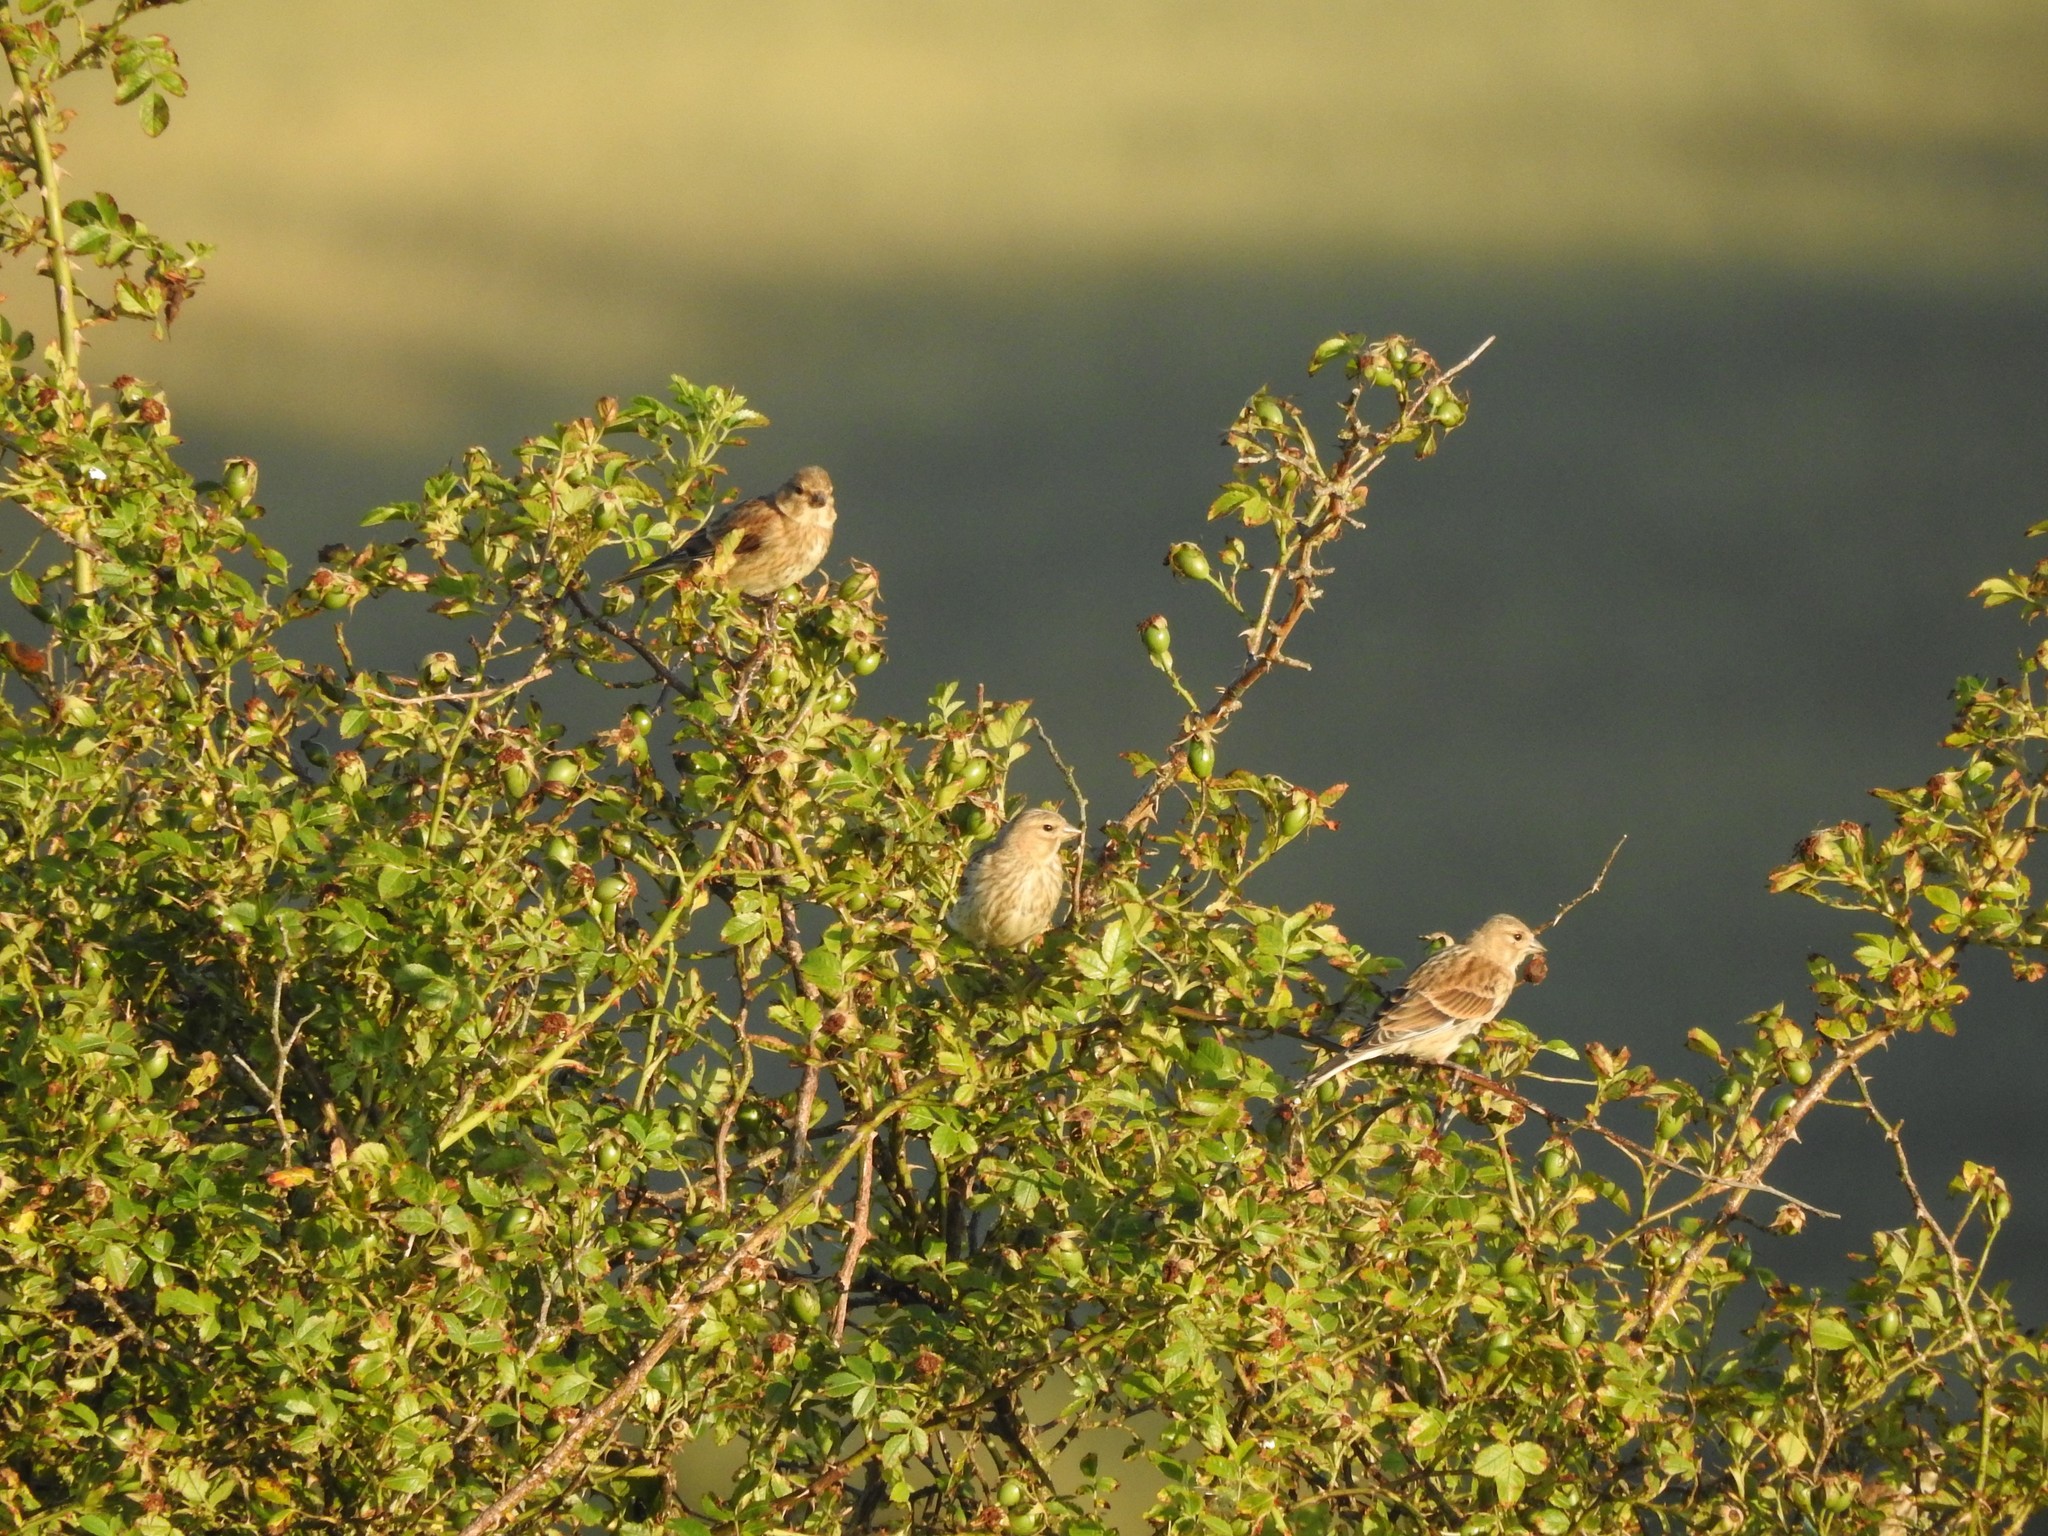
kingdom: Animalia
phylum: Chordata
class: Aves
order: Passeriformes
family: Fringillidae
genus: Linaria
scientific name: Linaria cannabina
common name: Common linnet
